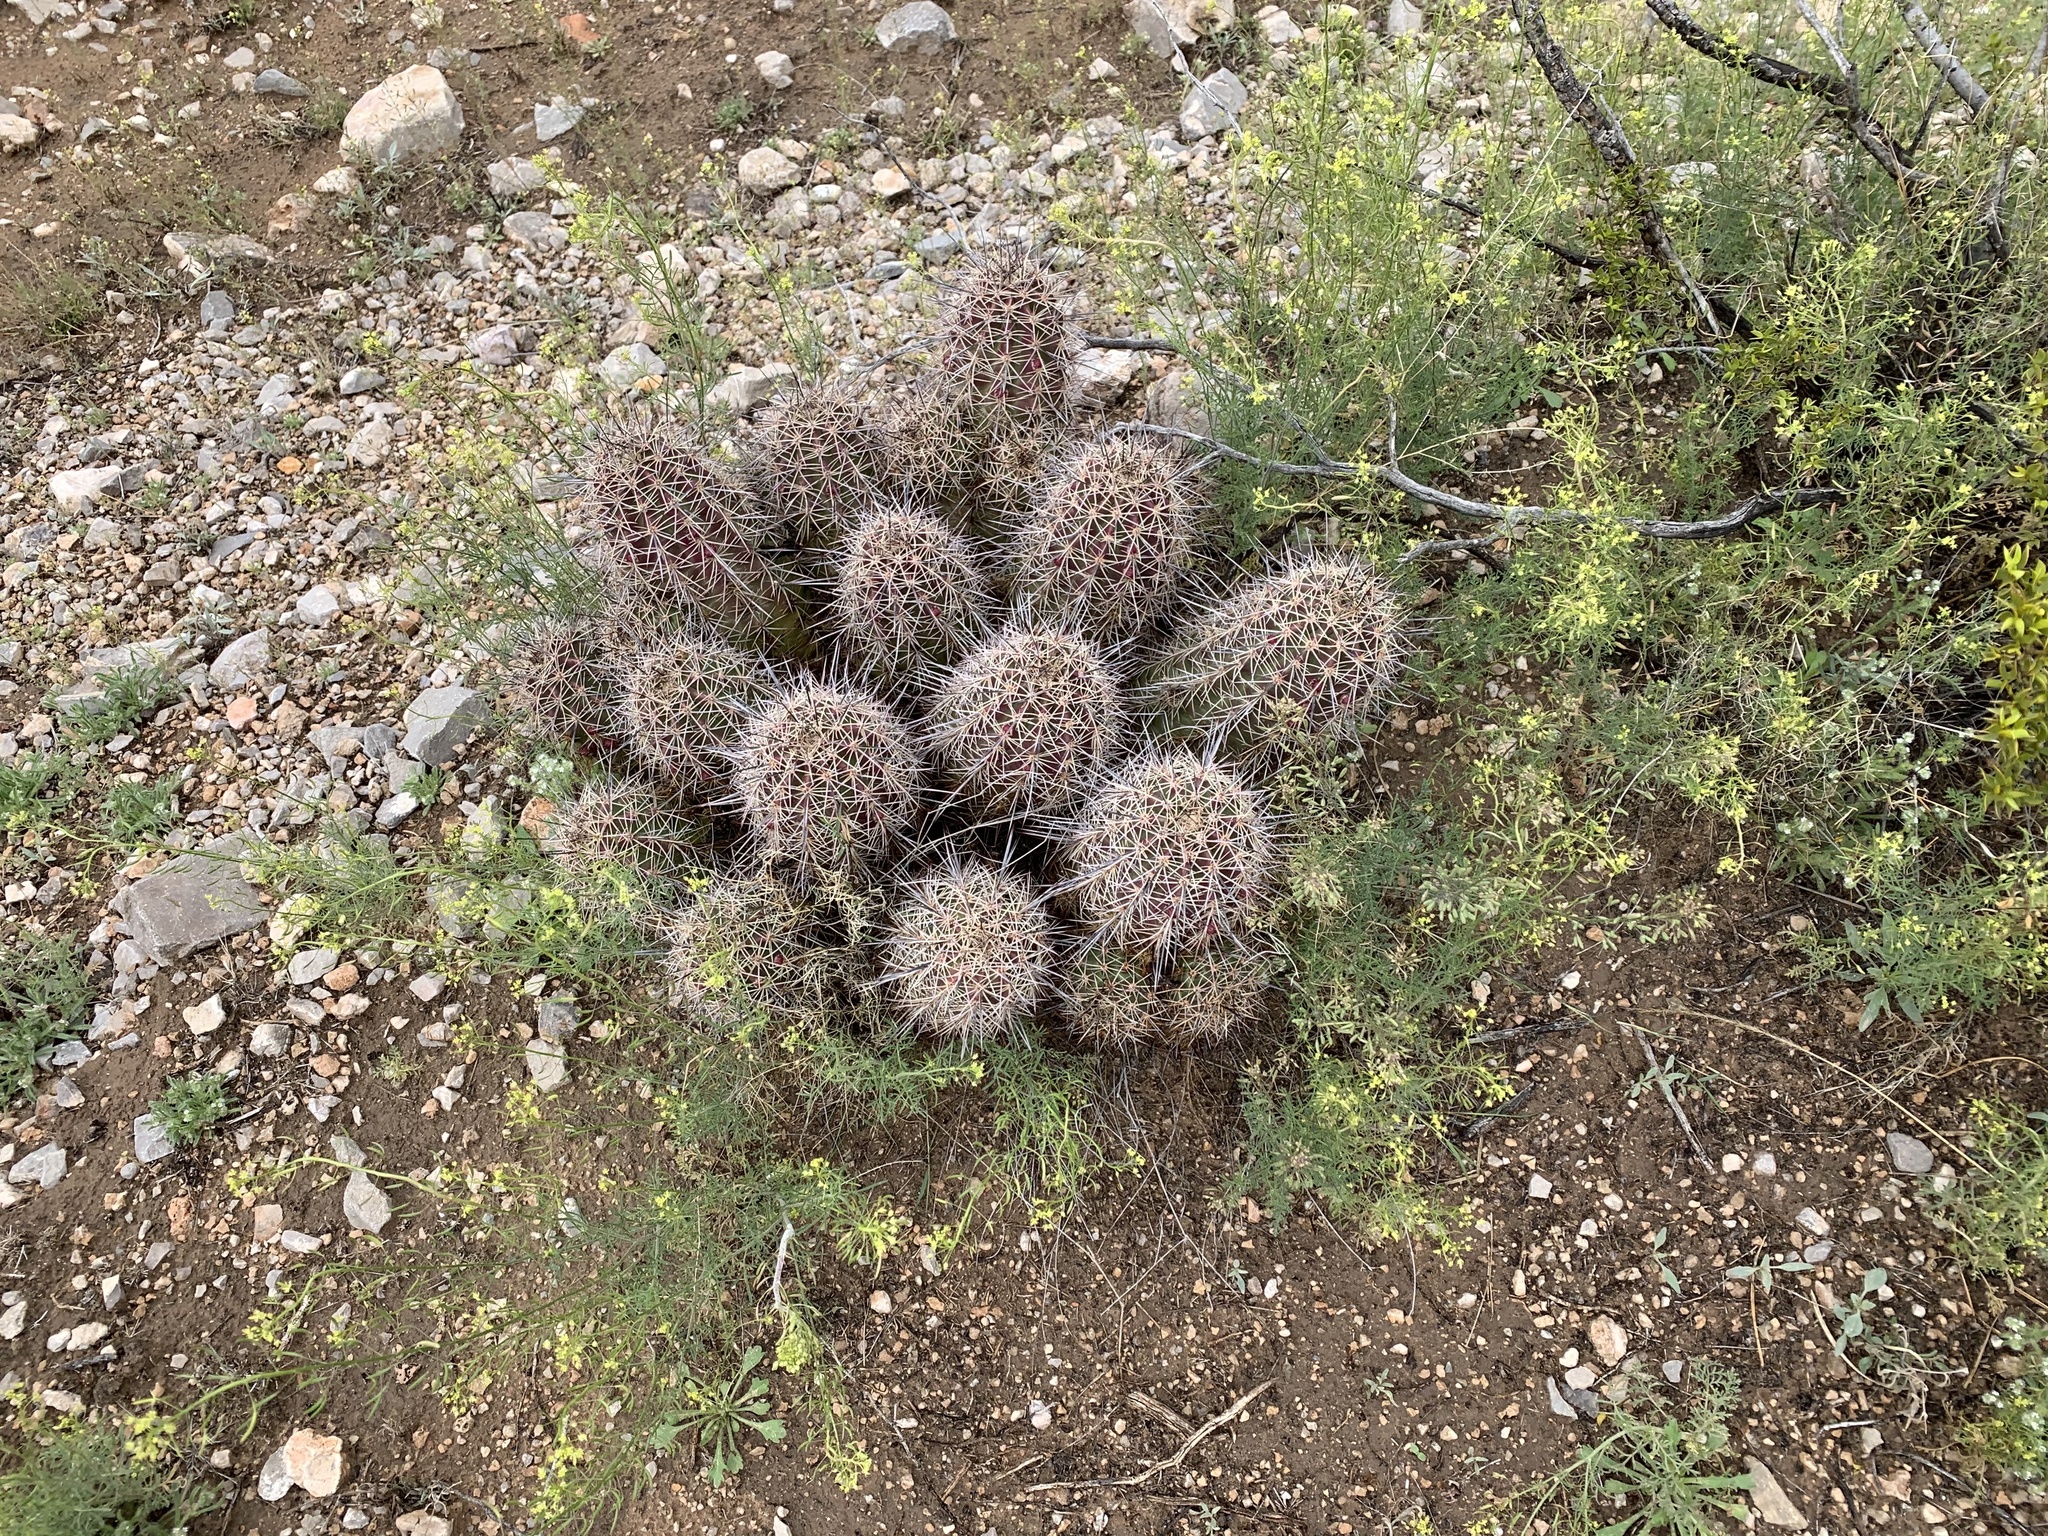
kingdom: Plantae
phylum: Tracheophyta
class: Magnoliopsida
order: Caryophyllales
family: Cactaceae
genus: Echinocereus
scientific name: Echinocereus coccineus
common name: Scarlet hedgehog cactus
